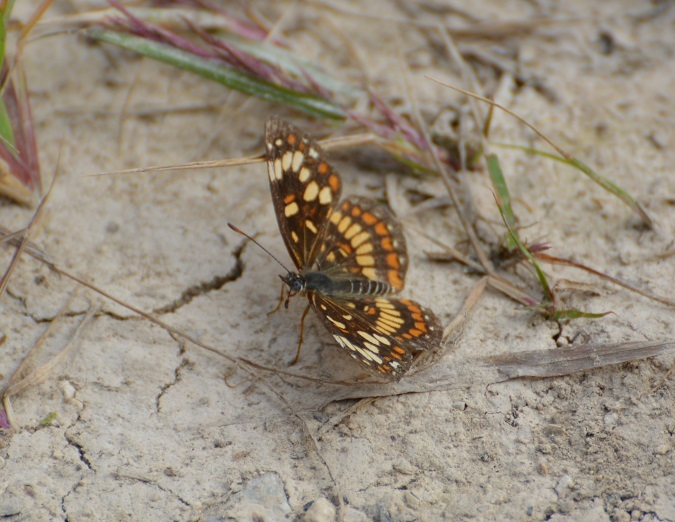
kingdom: Animalia
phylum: Arthropoda
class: Insecta
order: Lepidoptera
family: Nymphalidae
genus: Thessalia
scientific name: Thessalia theona
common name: Nymphalid moth
